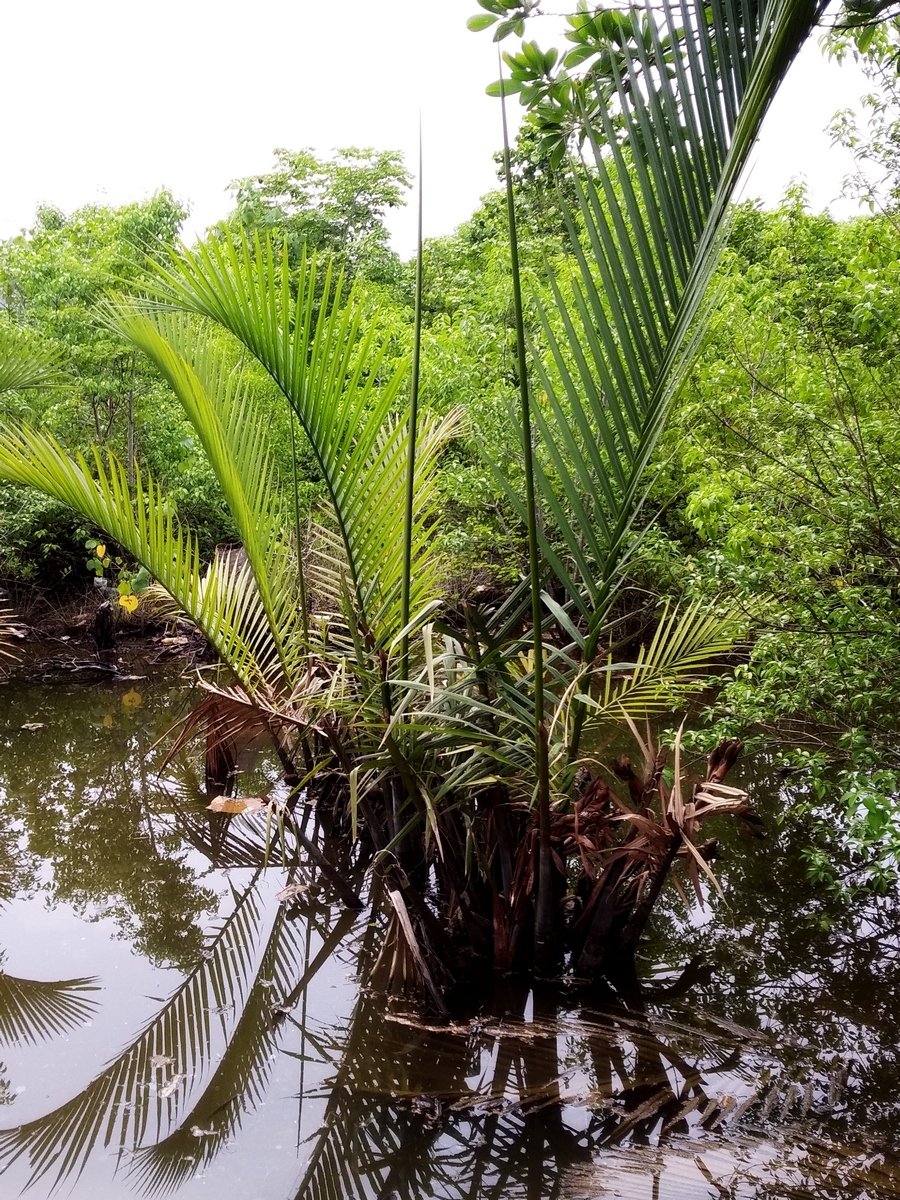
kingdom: Plantae
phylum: Tracheophyta
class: Liliopsida
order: Arecales
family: Arecaceae
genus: Nypa
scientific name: Nypa fruticans
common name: Mangrove palm
